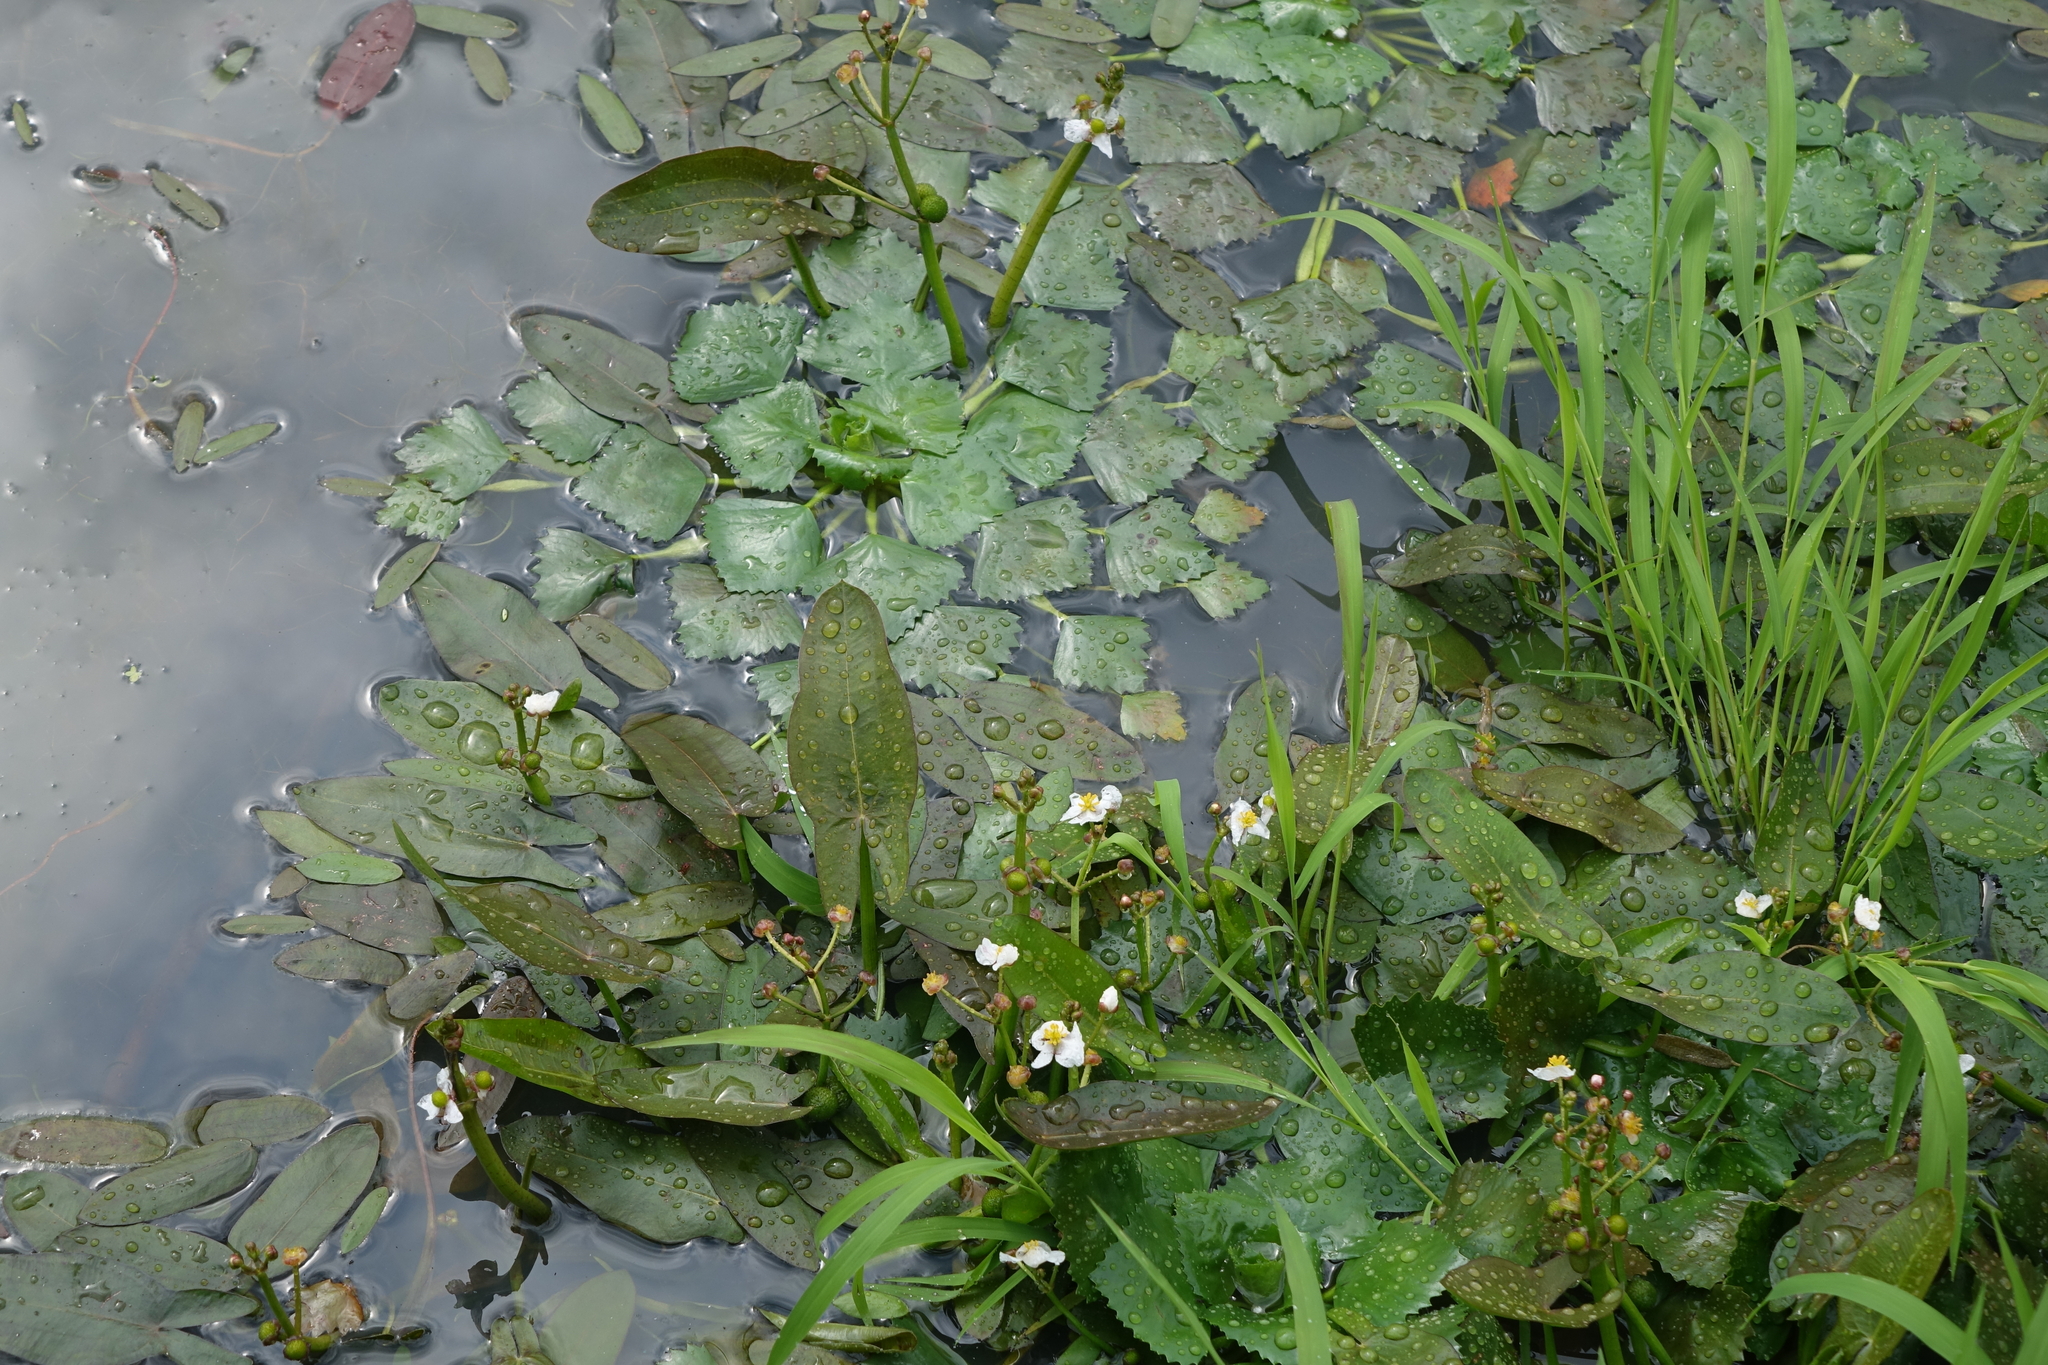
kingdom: Plantae
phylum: Tracheophyta
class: Magnoliopsida
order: Myrtales
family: Lythraceae
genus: Trapa
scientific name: Trapa natans
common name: Water chestnut
